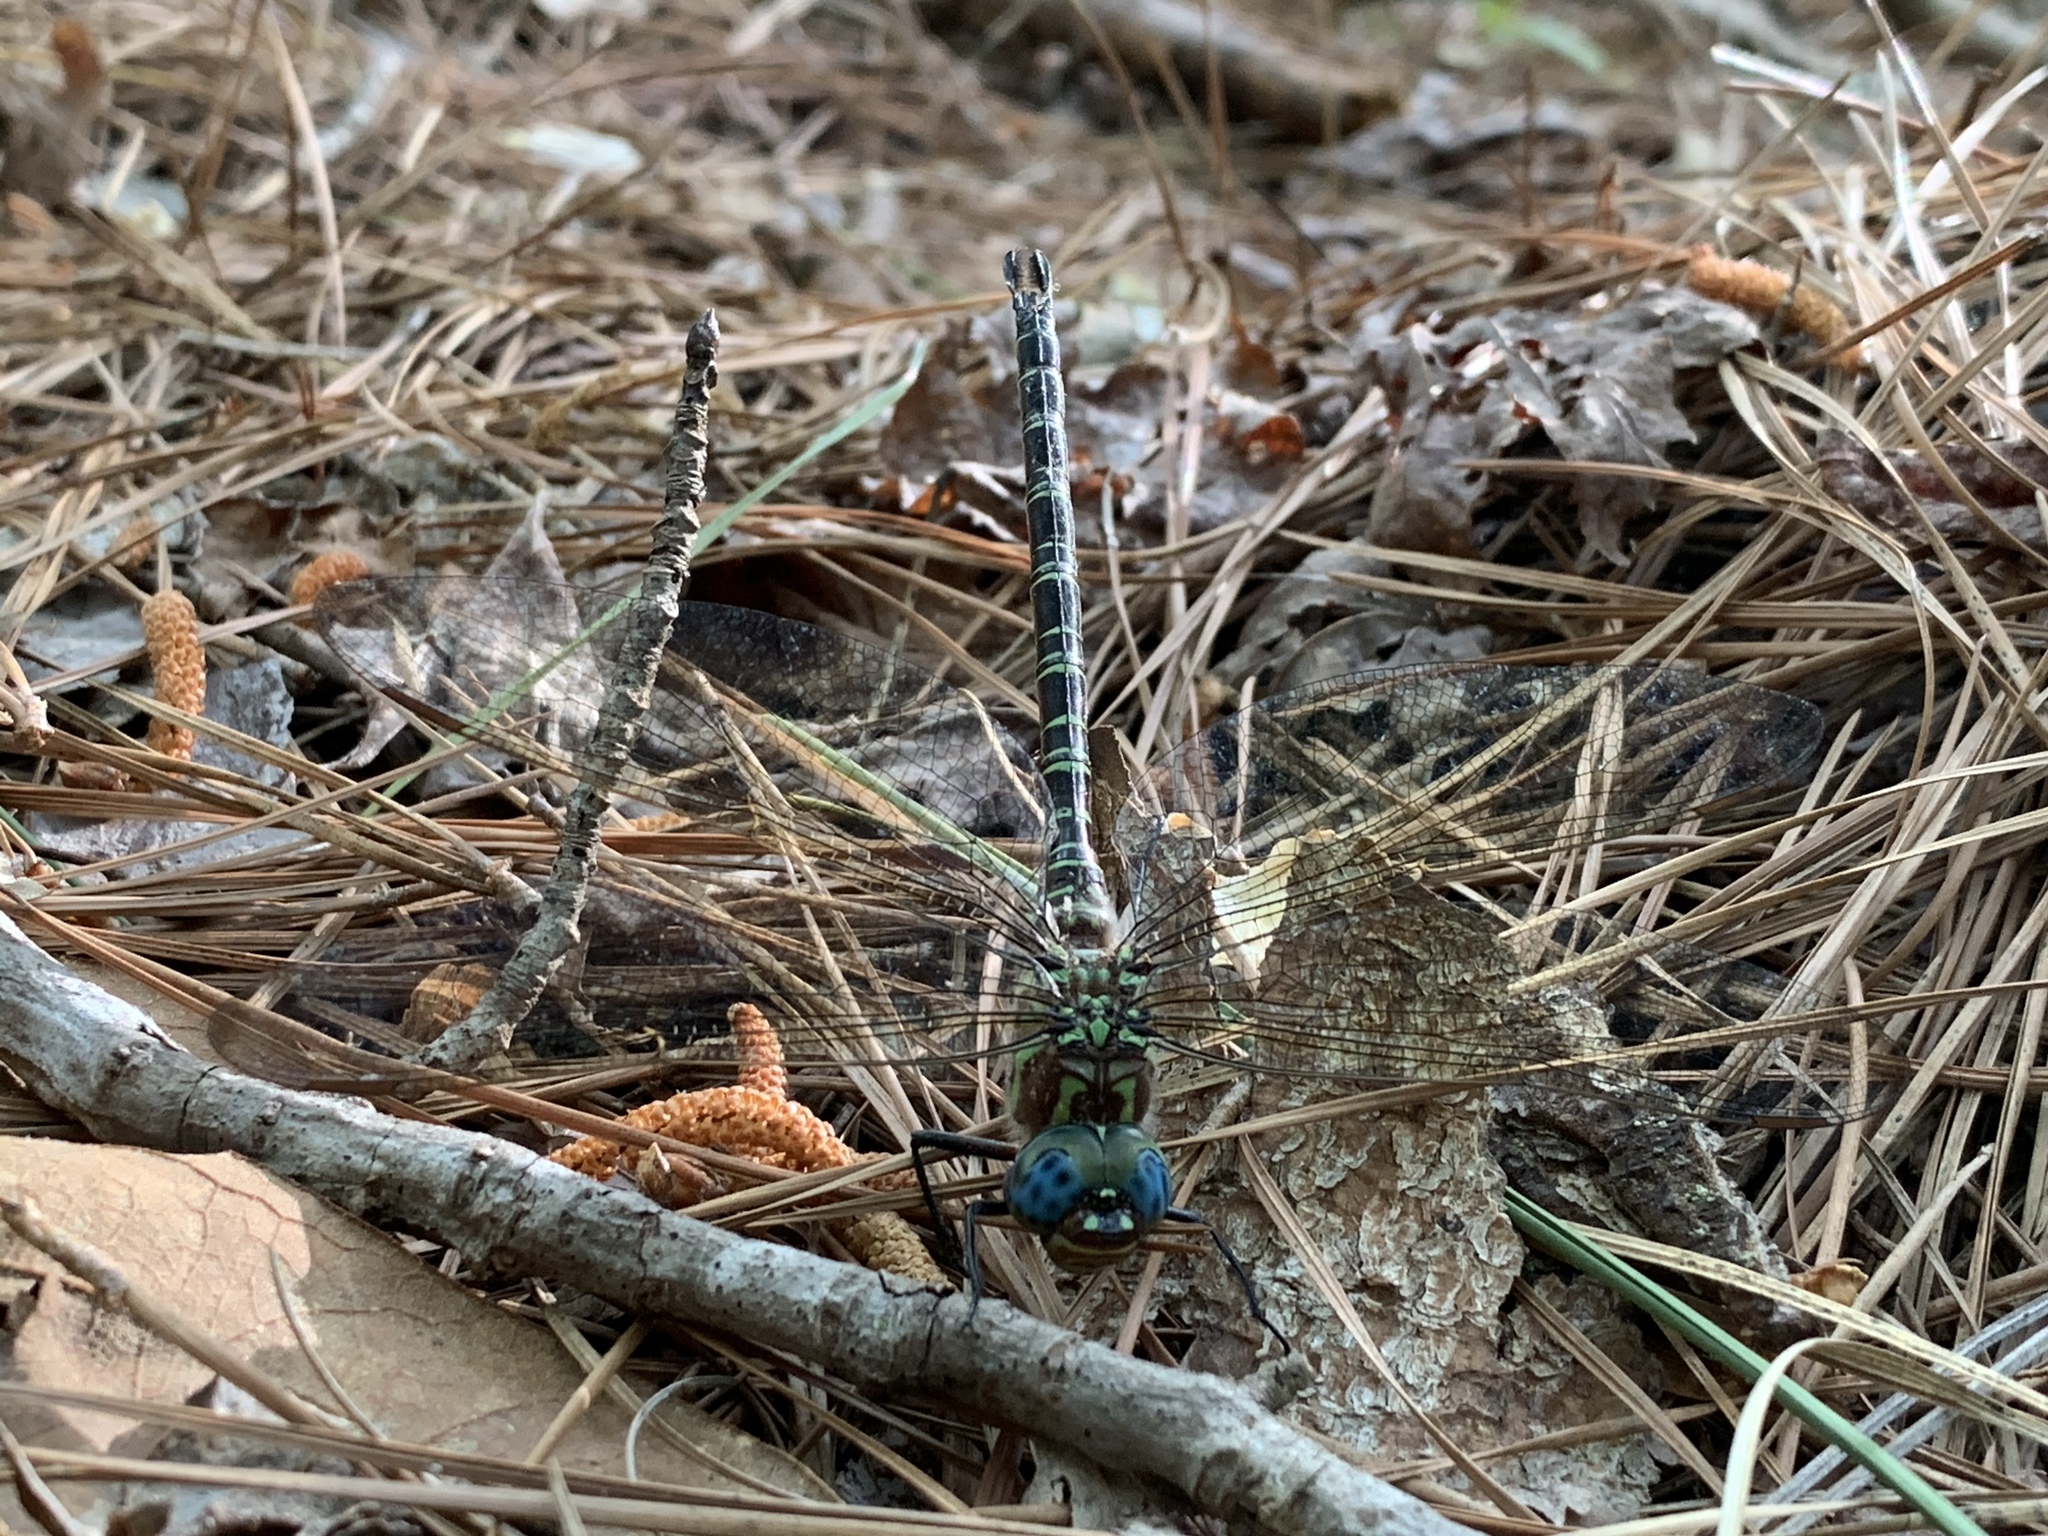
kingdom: Animalia
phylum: Arthropoda
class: Insecta
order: Odonata
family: Aeshnidae
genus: Epiaeschna
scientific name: Epiaeschna heros
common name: Swamp darner
